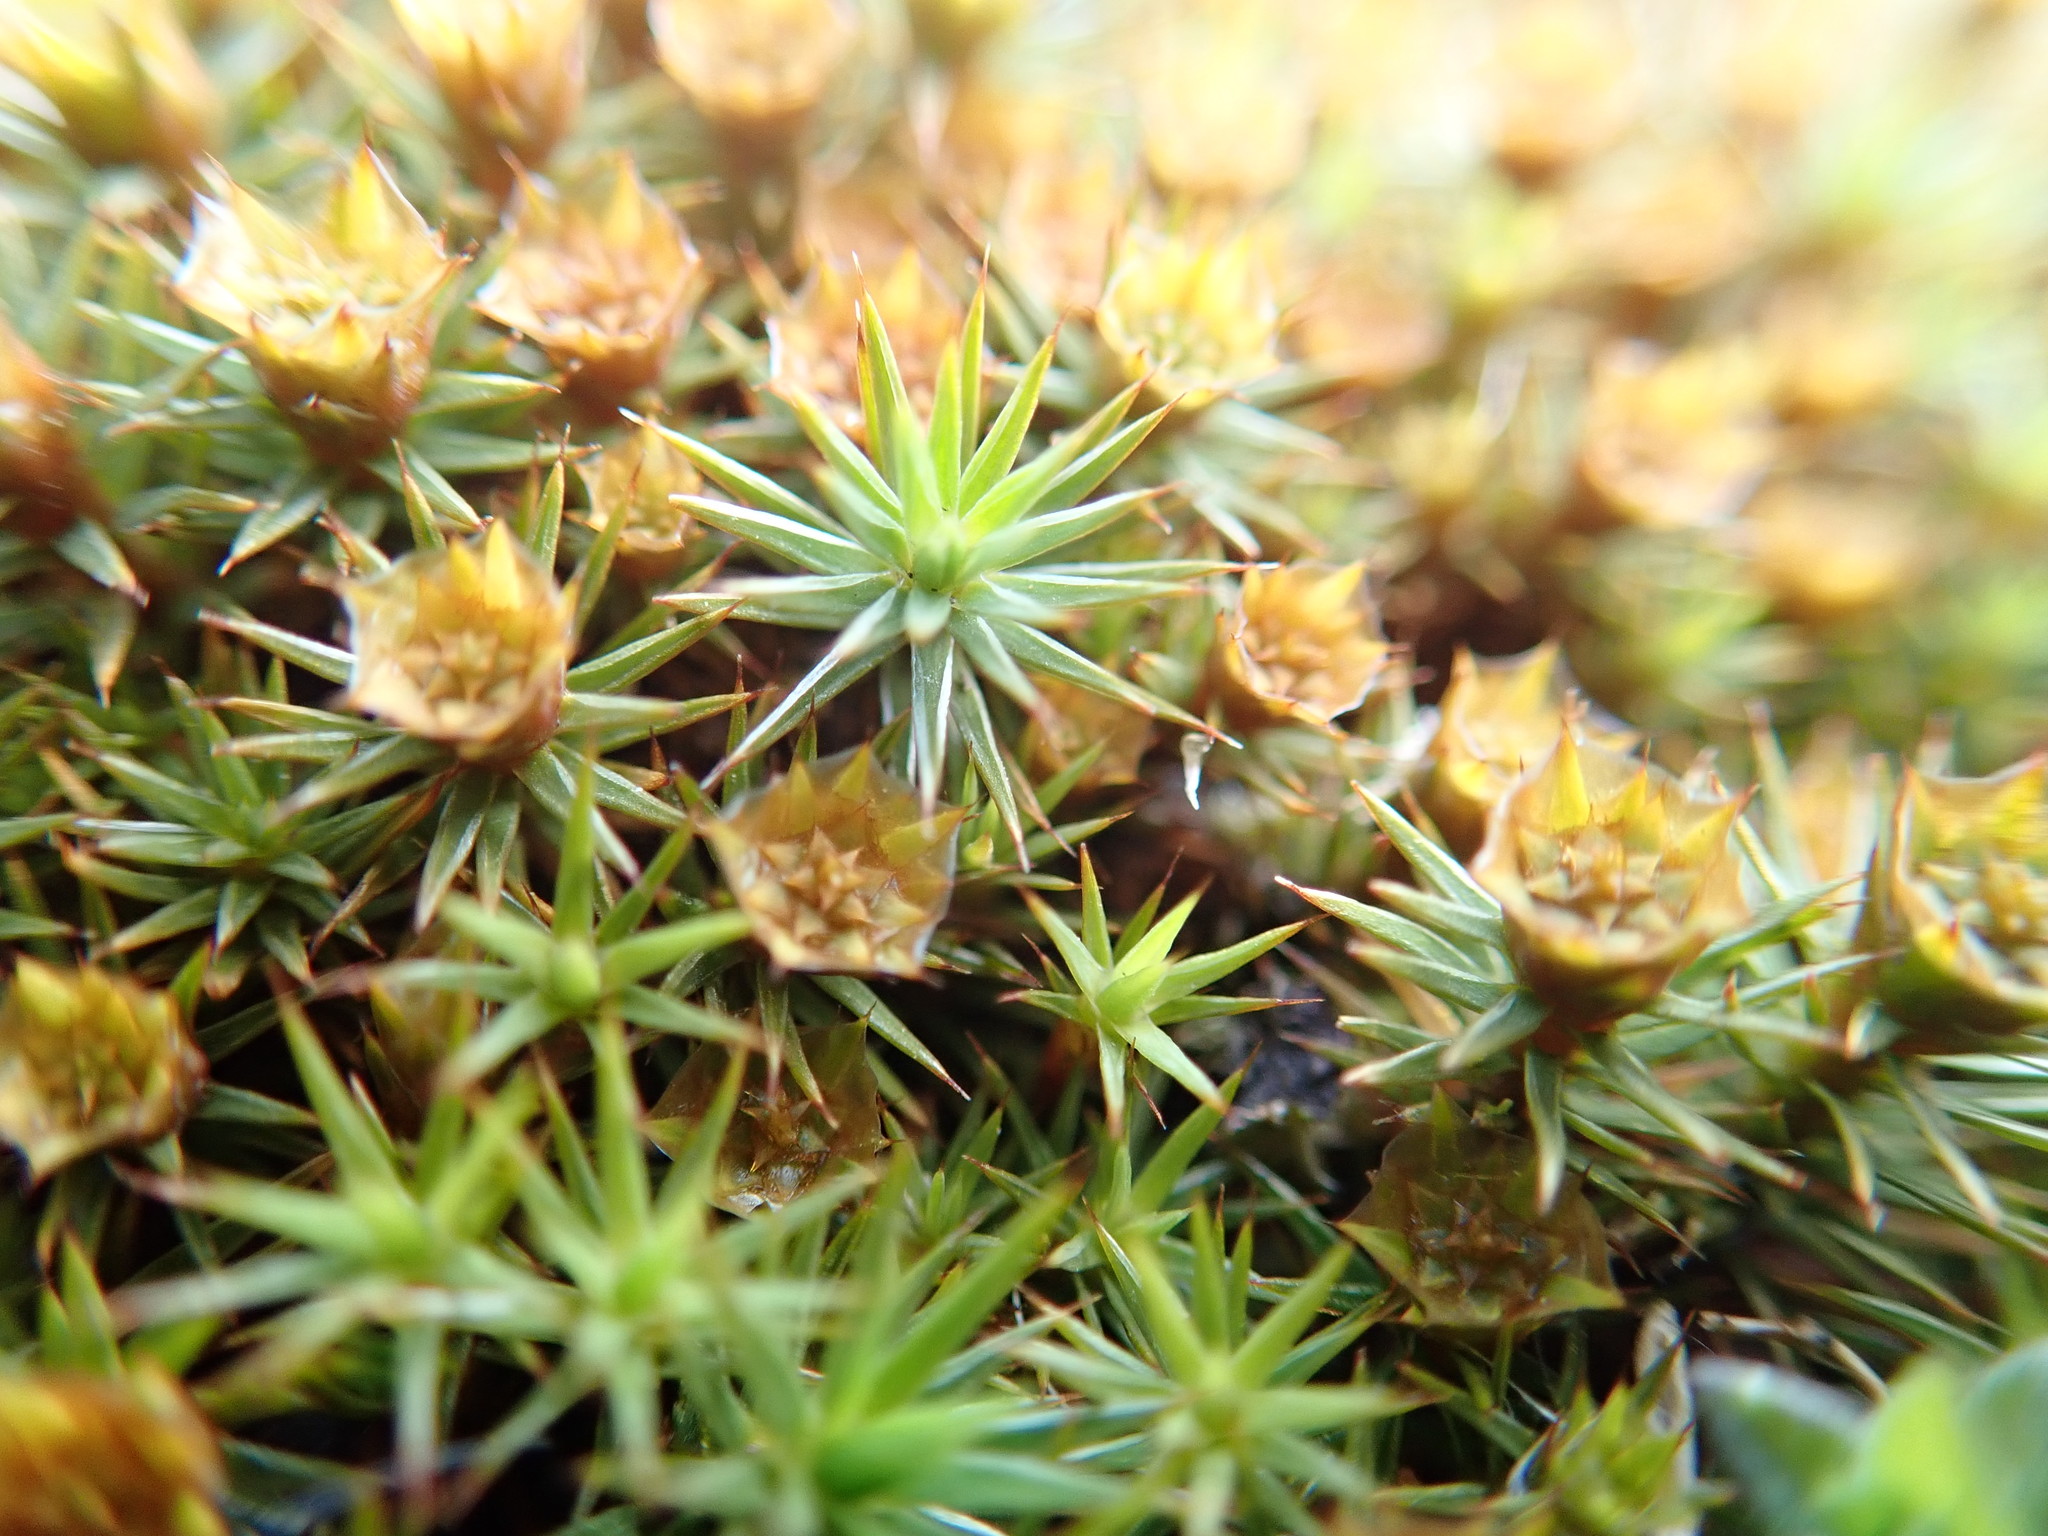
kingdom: Plantae
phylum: Bryophyta
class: Polytrichopsida
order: Polytrichales
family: Polytrichaceae
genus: Polytrichum
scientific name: Polytrichum juniperinum
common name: Juniper haircap moss
